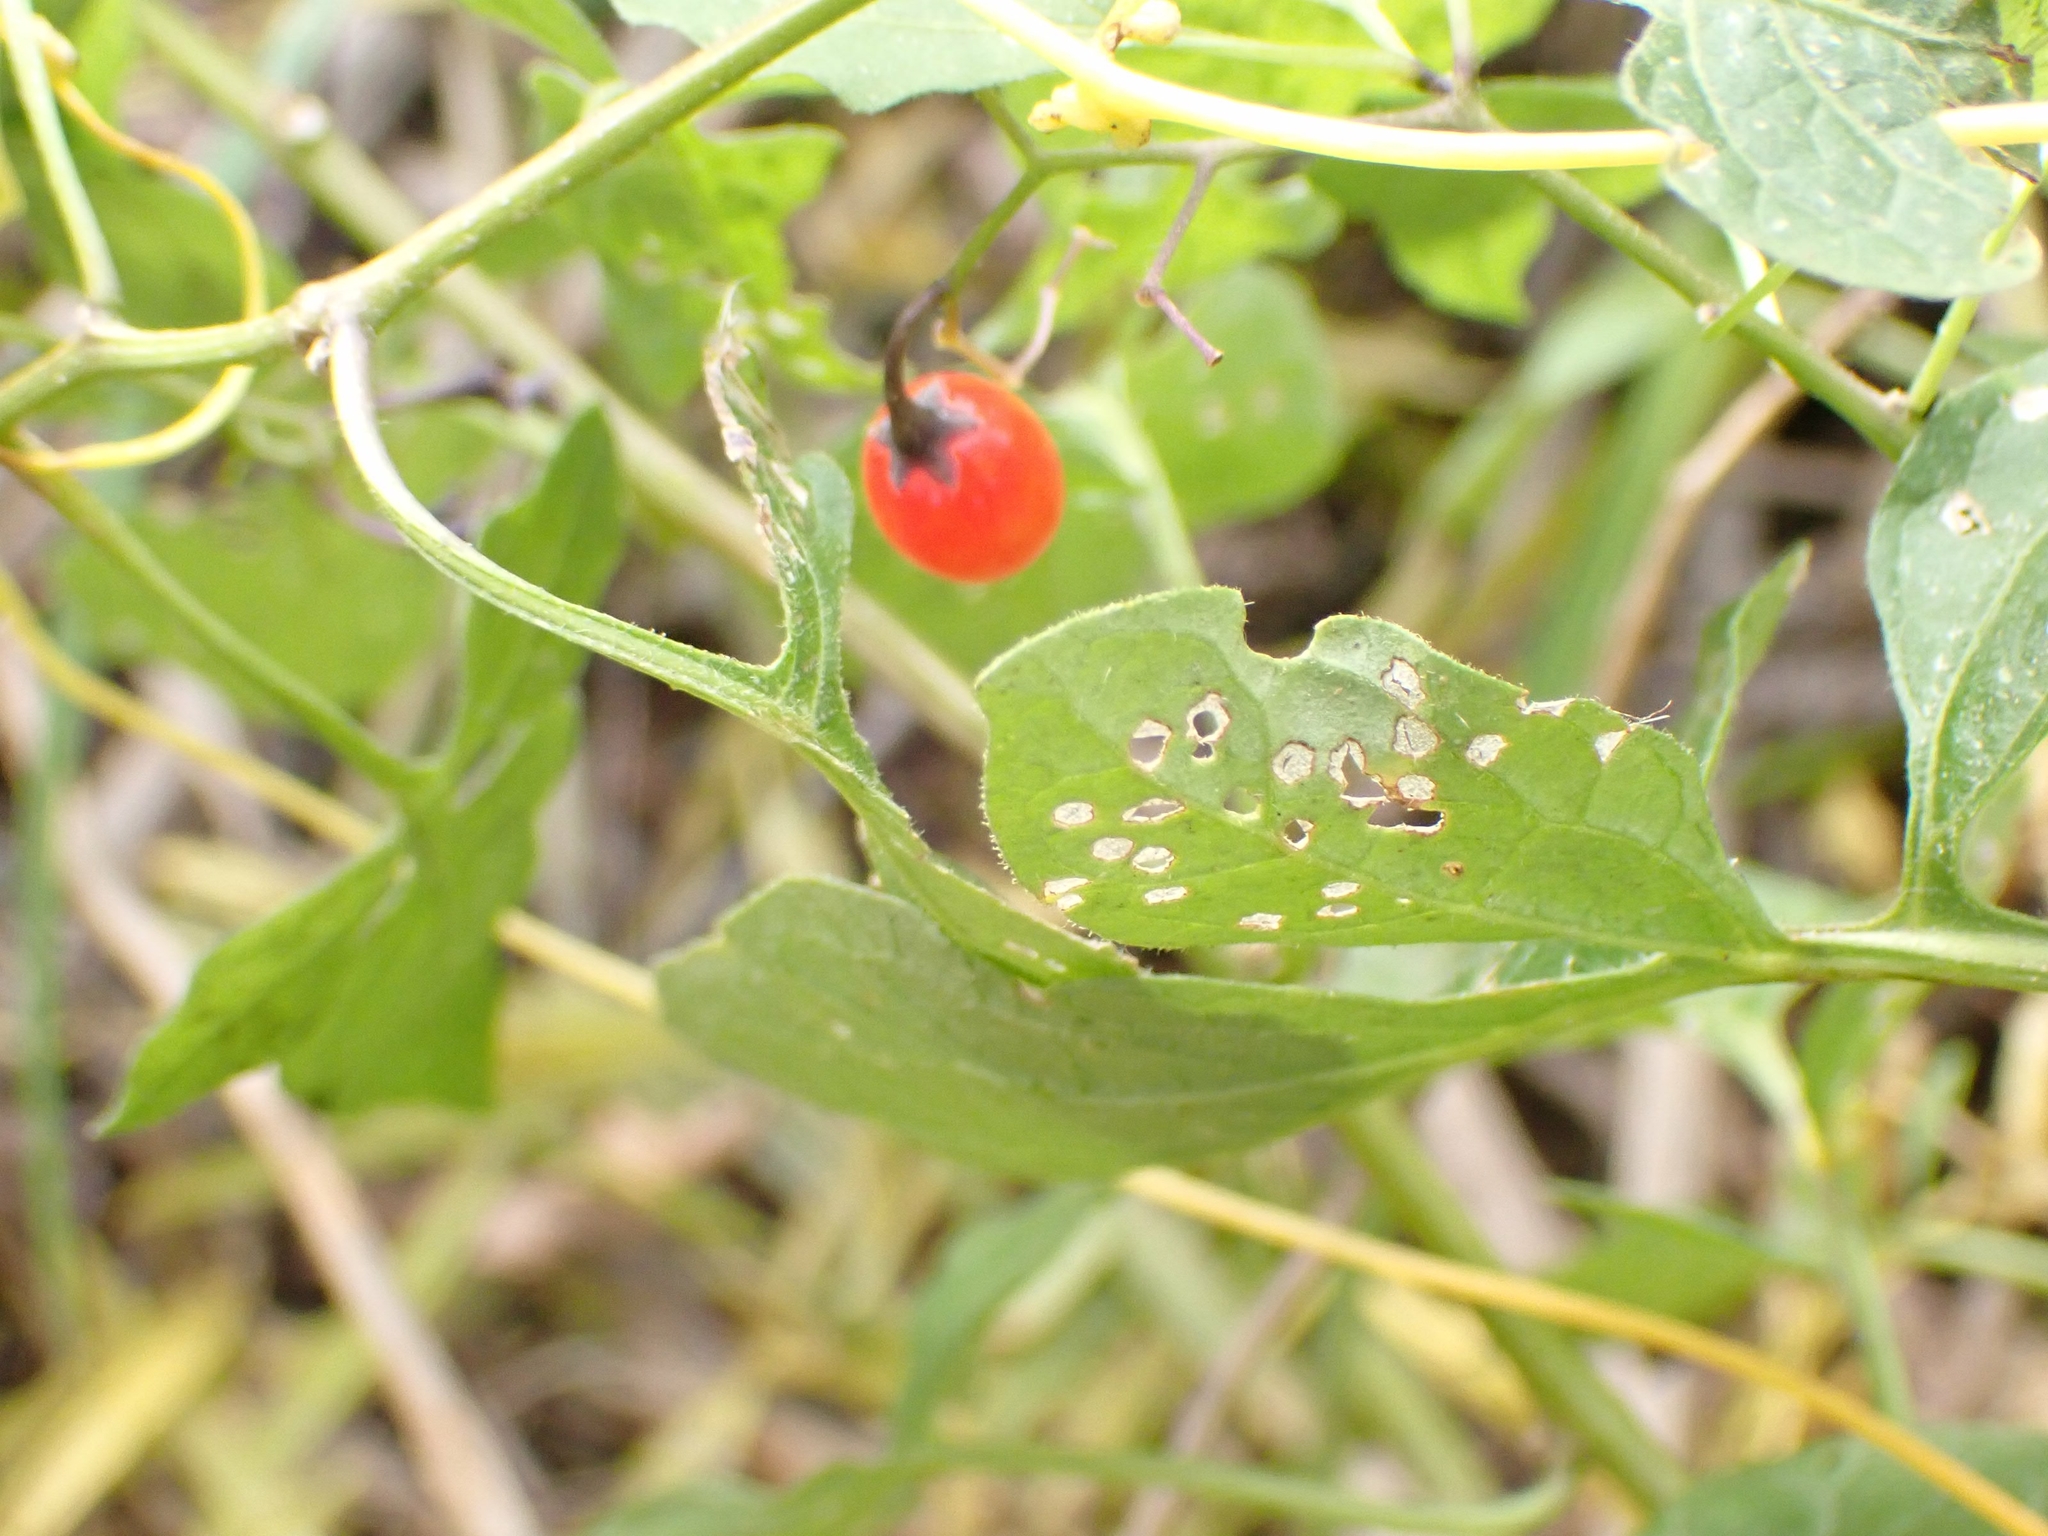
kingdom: Plantae
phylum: Tracheophyta
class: Magnoliopsida
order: Solanales
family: Solanaceae
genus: Solanum
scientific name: Solanum dulcamara
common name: Climbing nightshade
